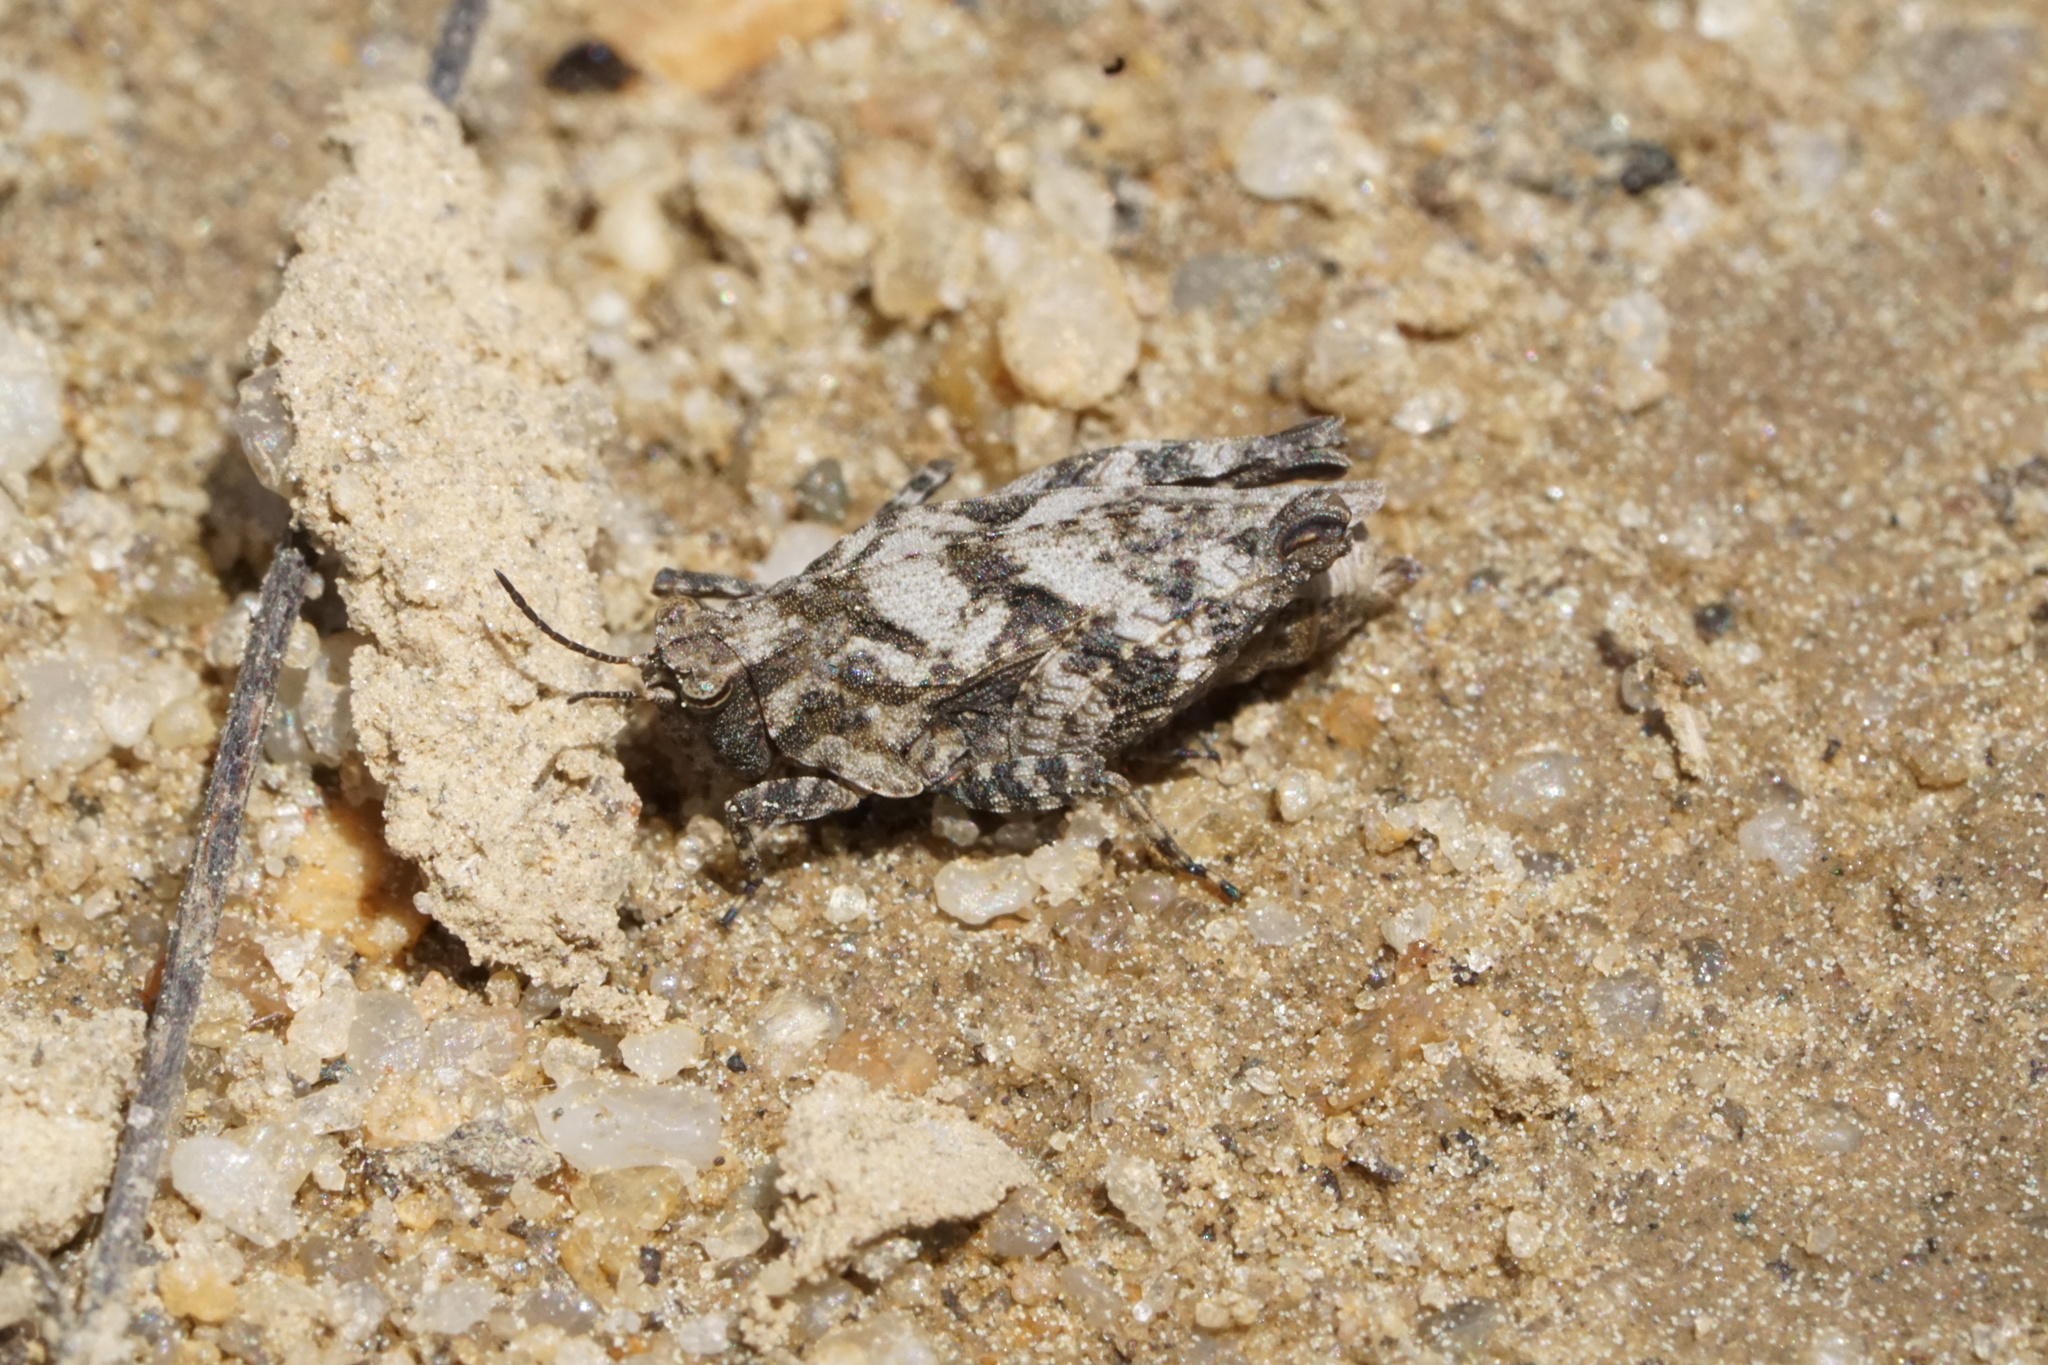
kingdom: Animalia
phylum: Arthropoda
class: Insecta
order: Orthoptera
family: Tetrigidae
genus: Nomotettix
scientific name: Nomotettix cristatus
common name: Crested grouse locust
